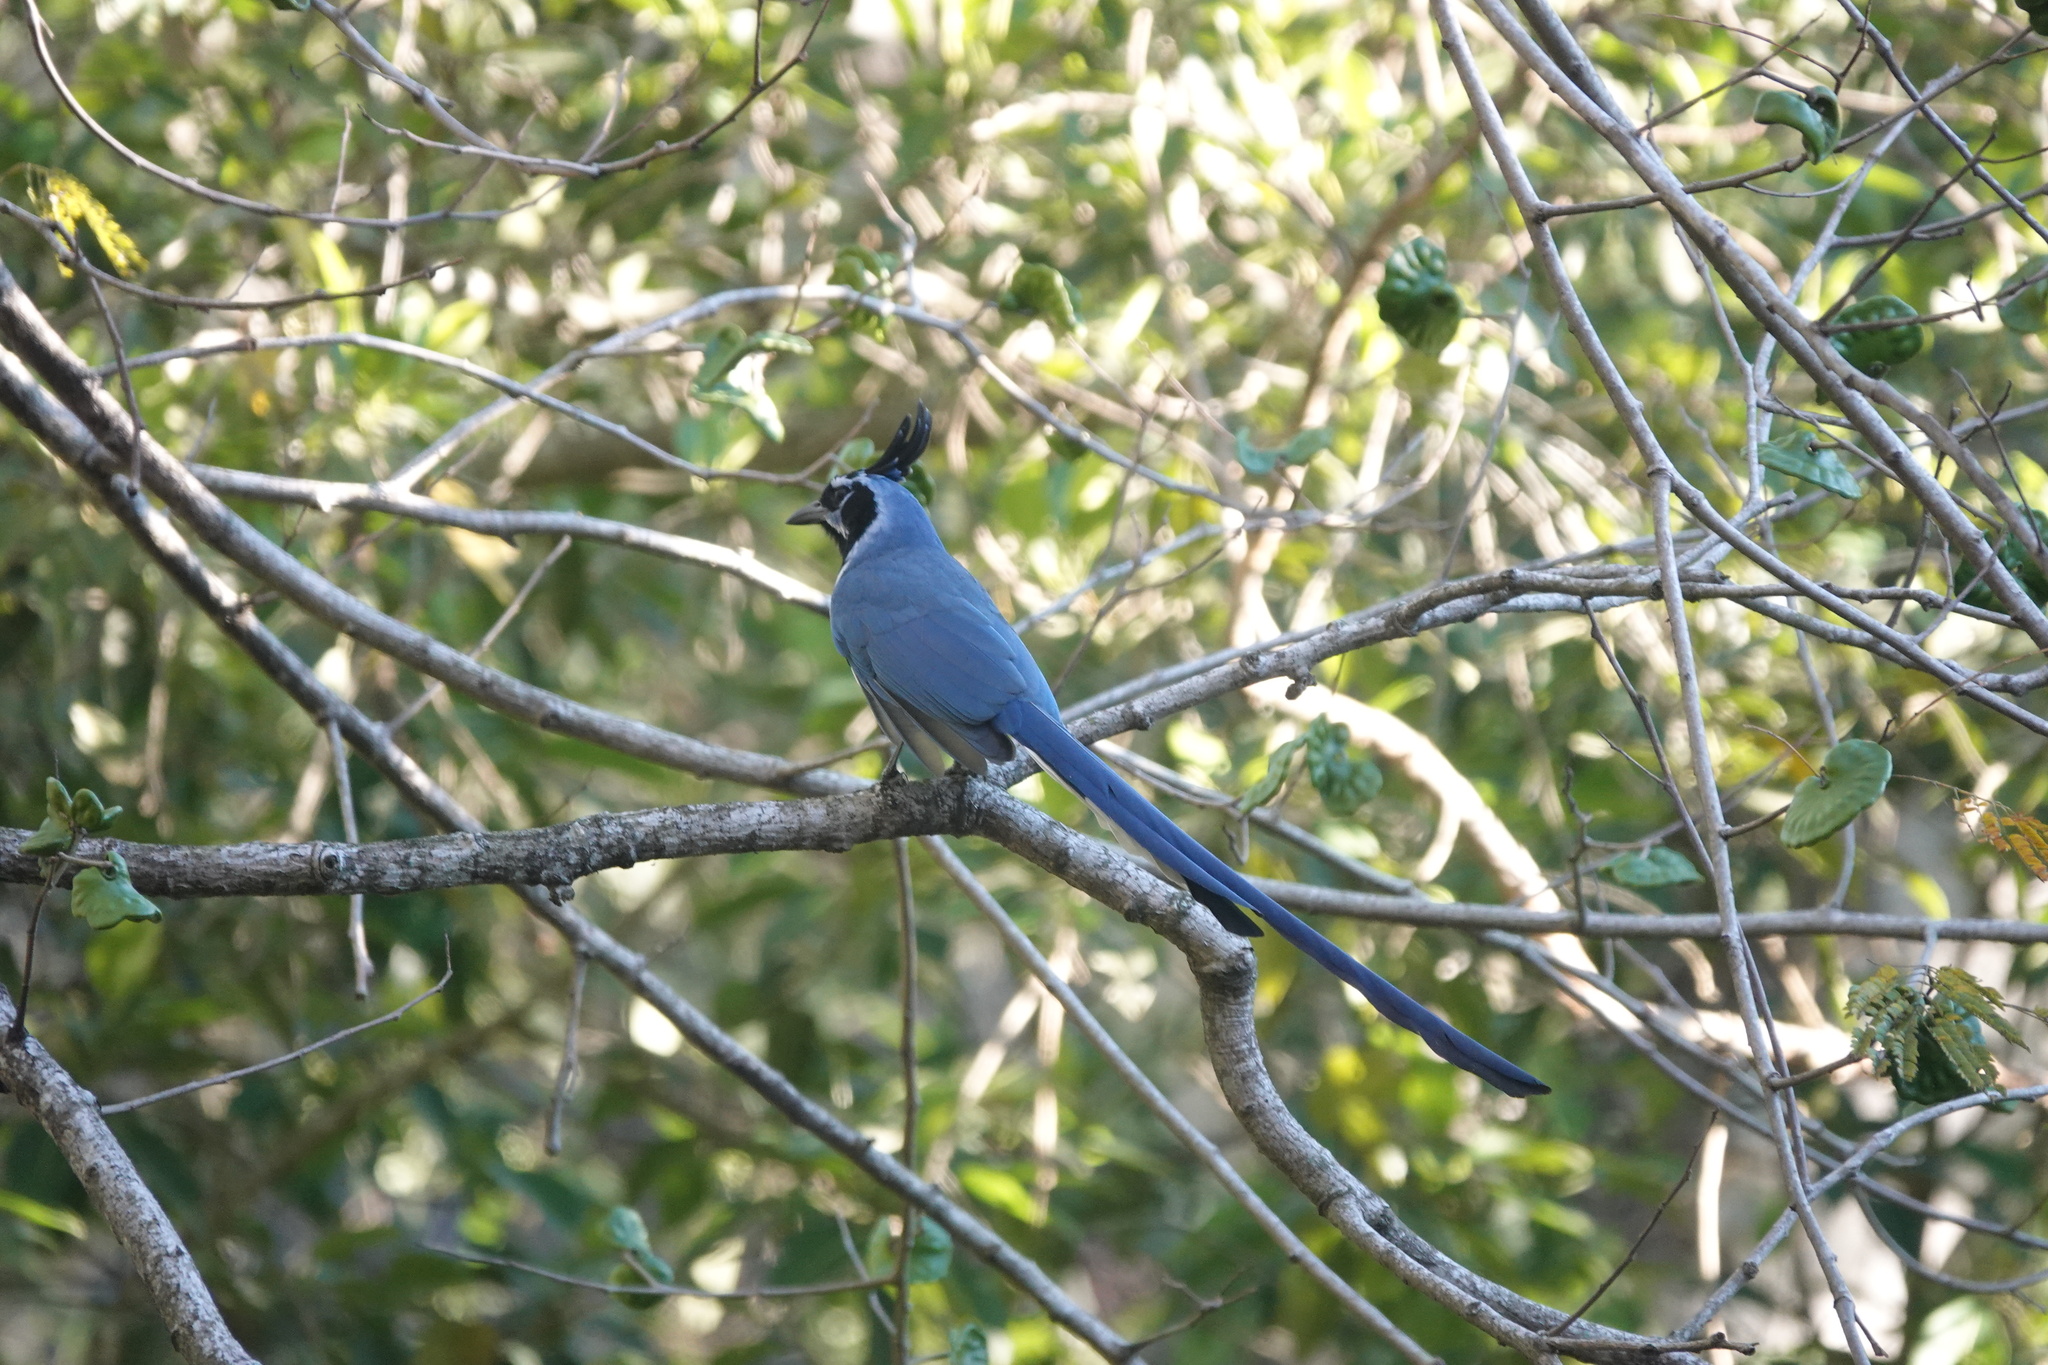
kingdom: Animalia
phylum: Chordata
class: Aves
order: Passeriformes
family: Corvidae
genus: Calocitta
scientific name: Calocitta colliei
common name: Black-throated magpie-jay
